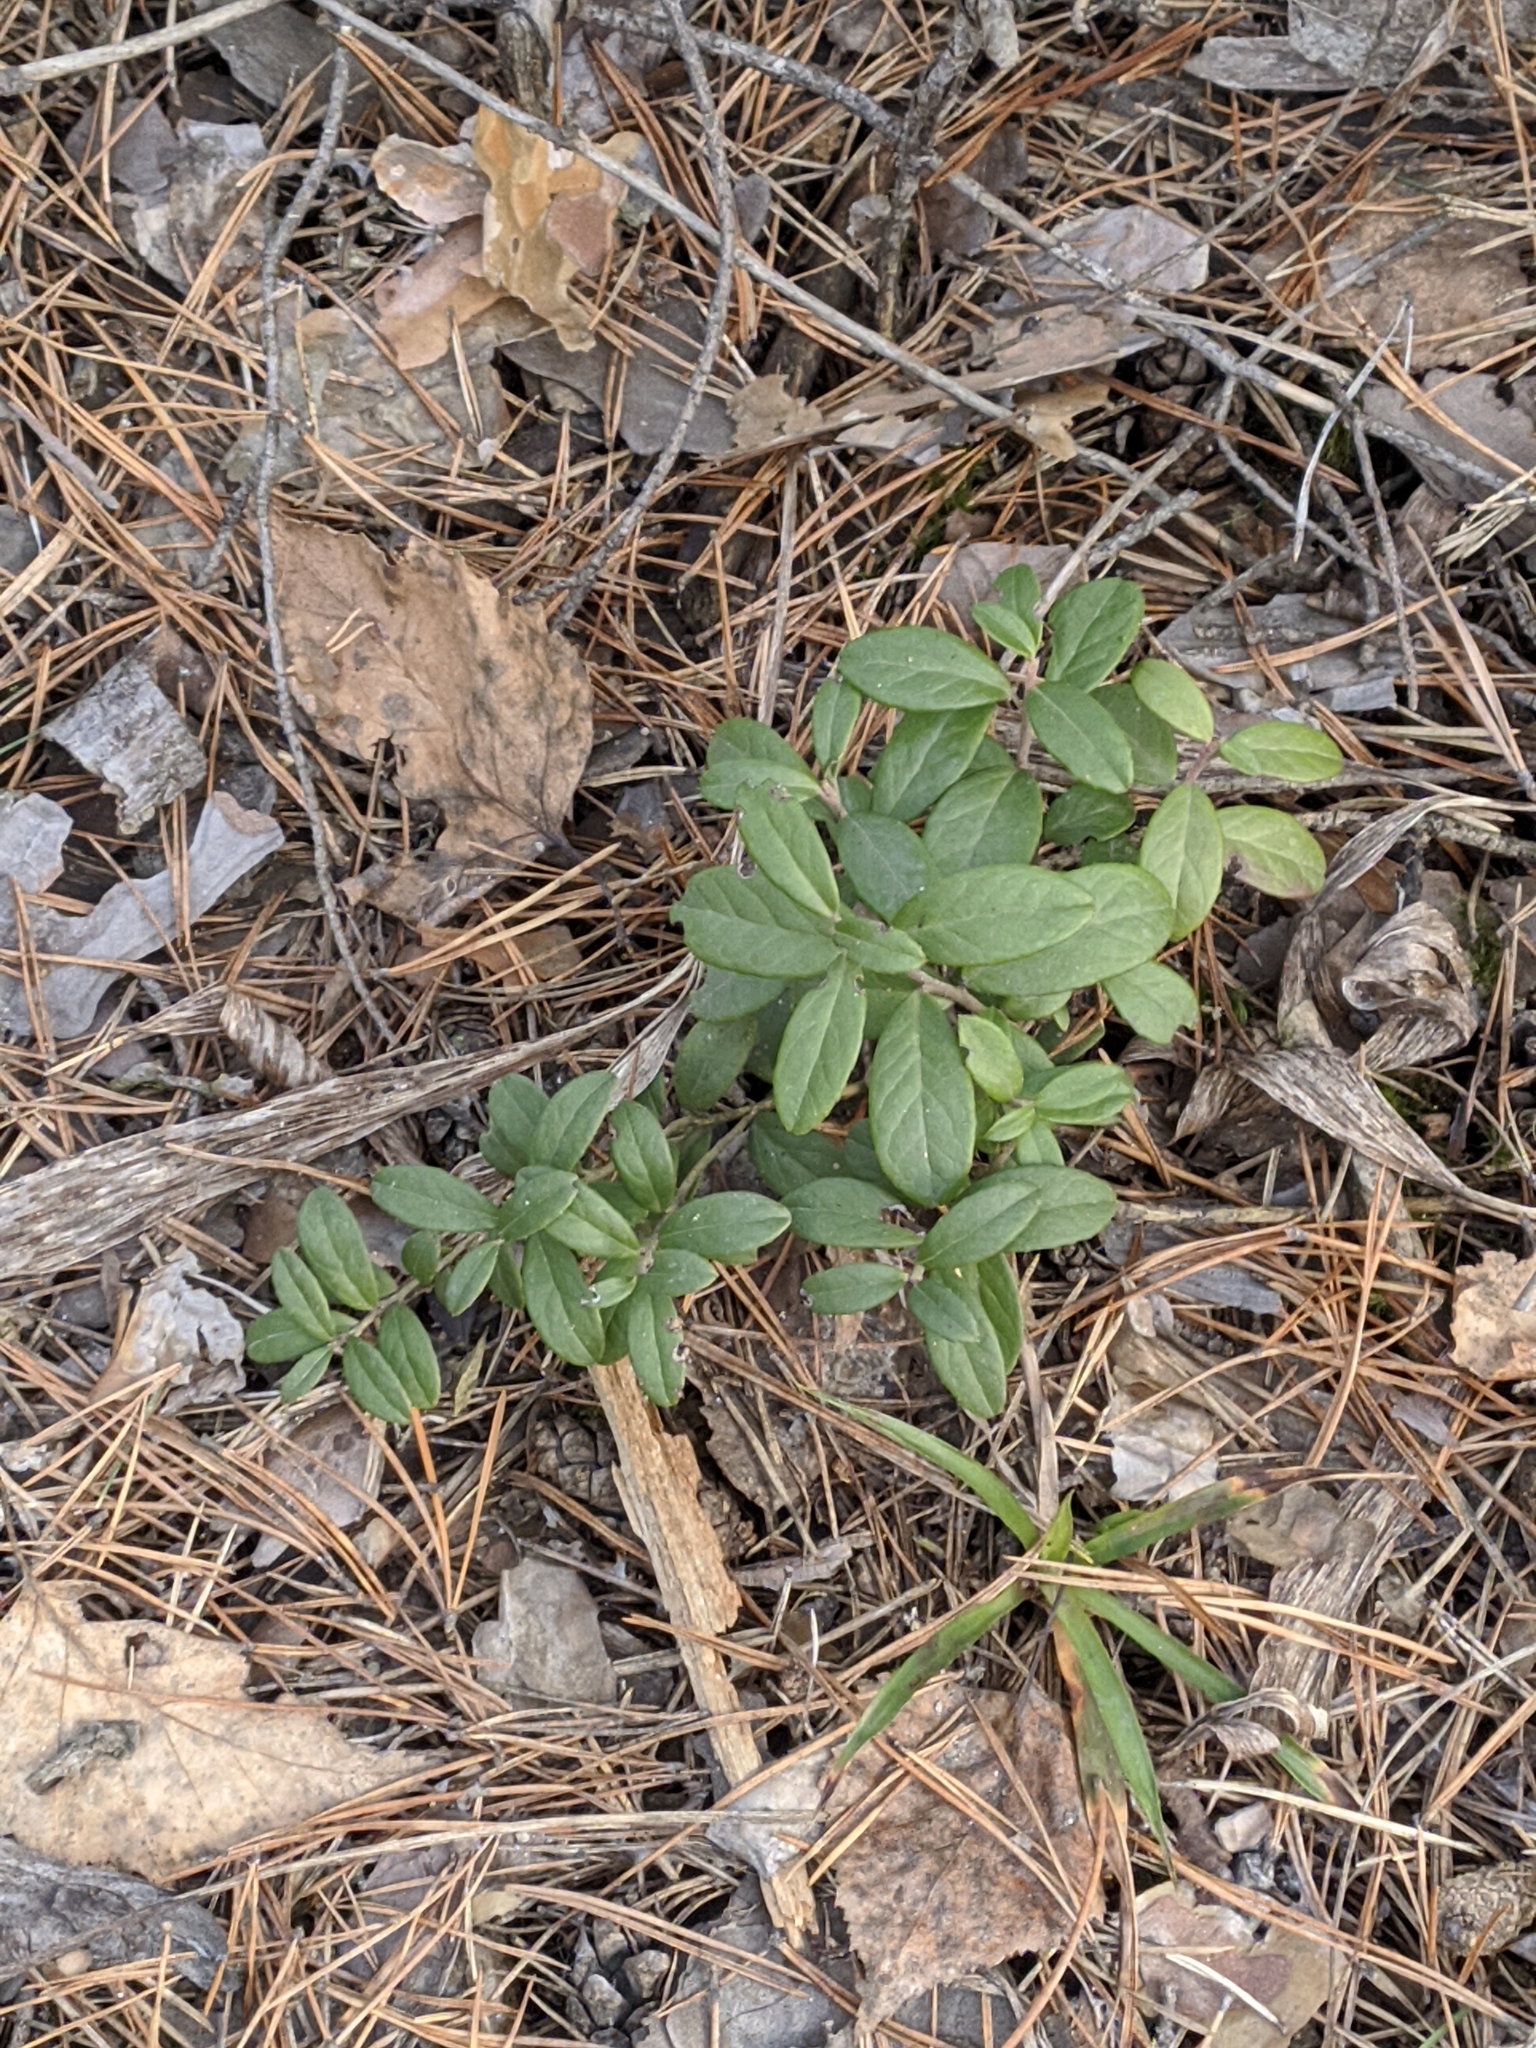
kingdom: Plantae
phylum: Tracheophyta
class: Magnoliopsida
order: Ericales
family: Ericaceae
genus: Vaccinium
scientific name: Vaccinium vitis-idaea
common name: Cowberry
